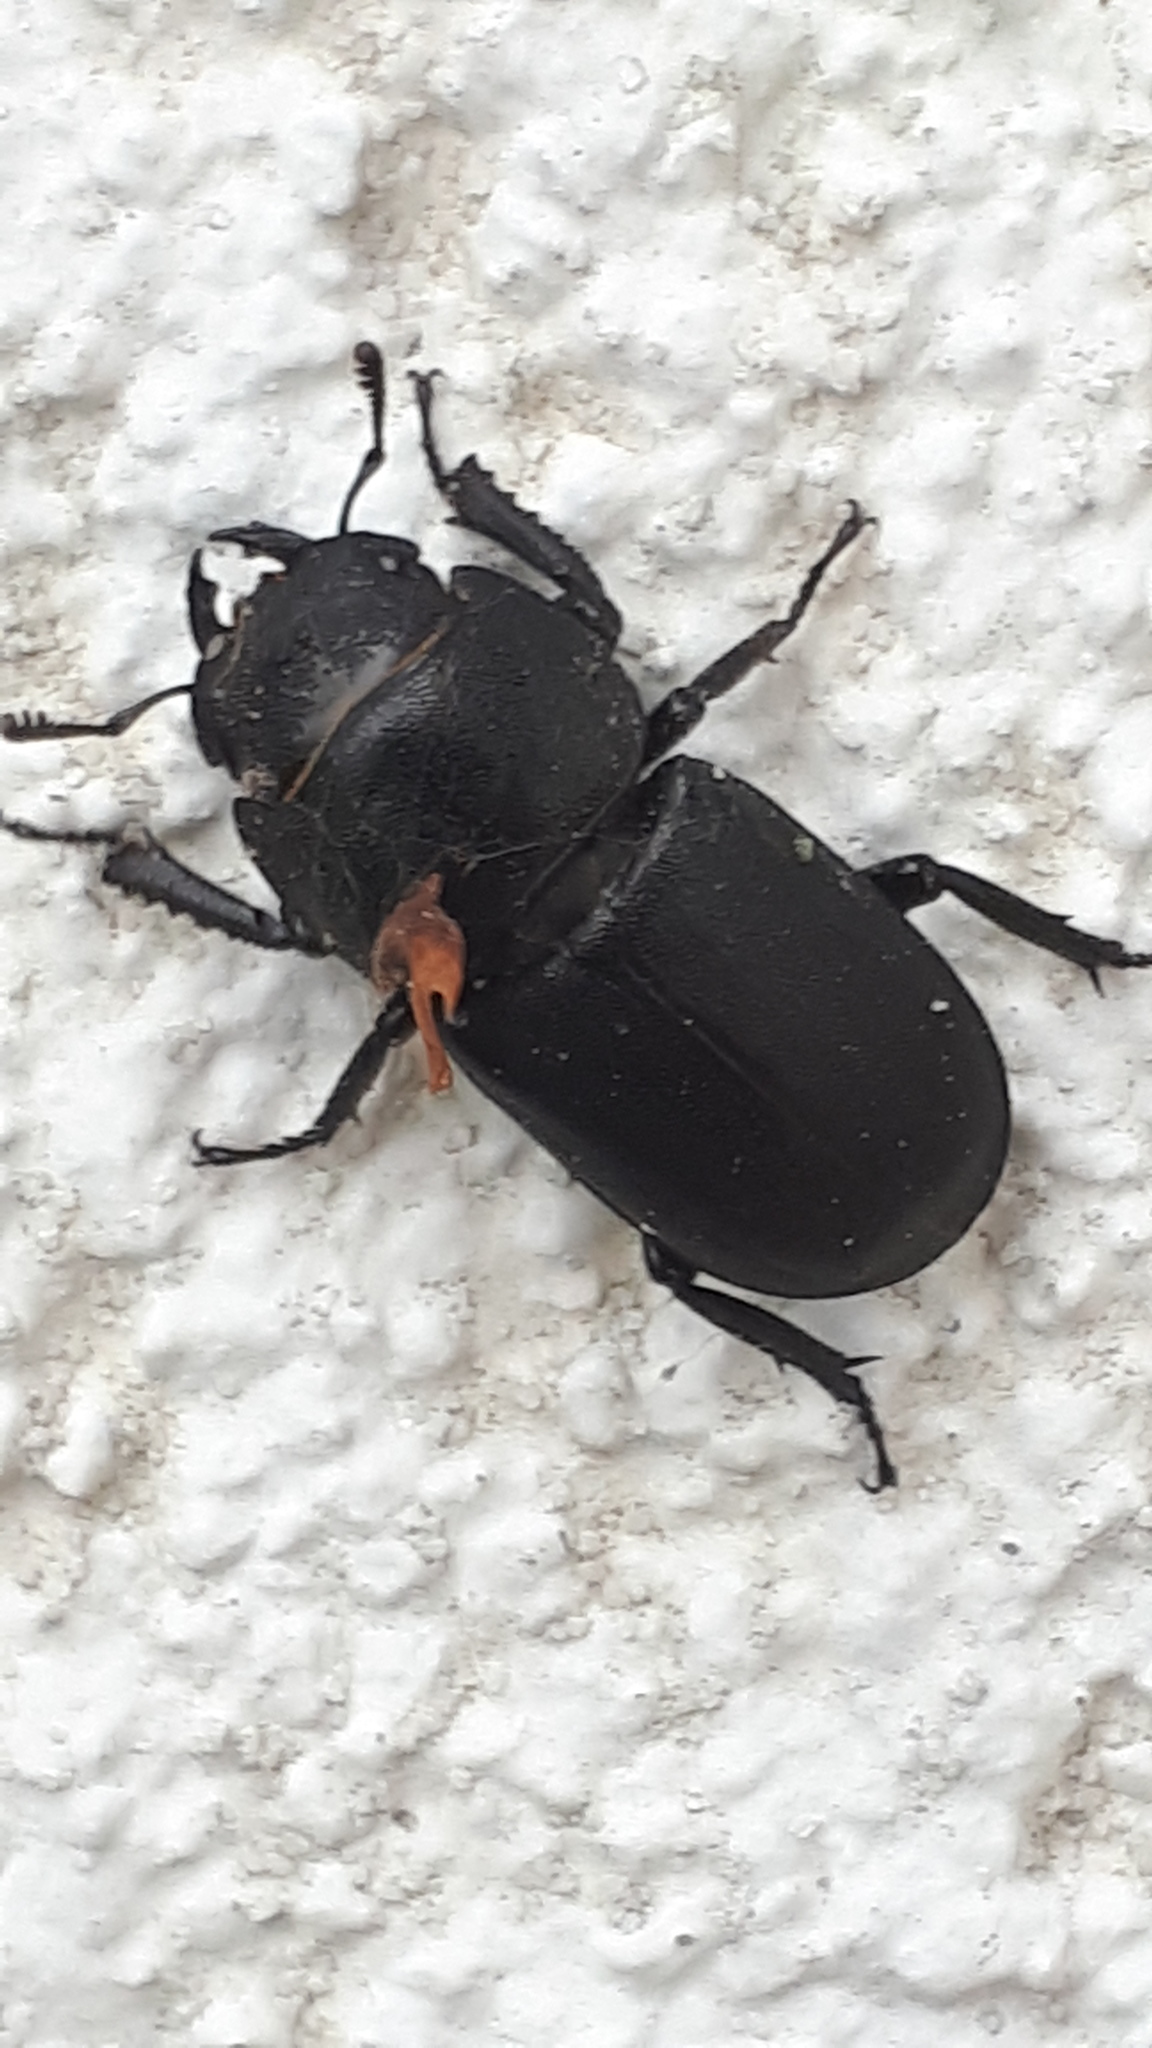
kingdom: Animalia
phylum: Arthropoda
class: Insecta
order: Coleoptera
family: Lucanidae
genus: Dorcus
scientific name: Dorcus parallelipipedus
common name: Lesser stag beetle
